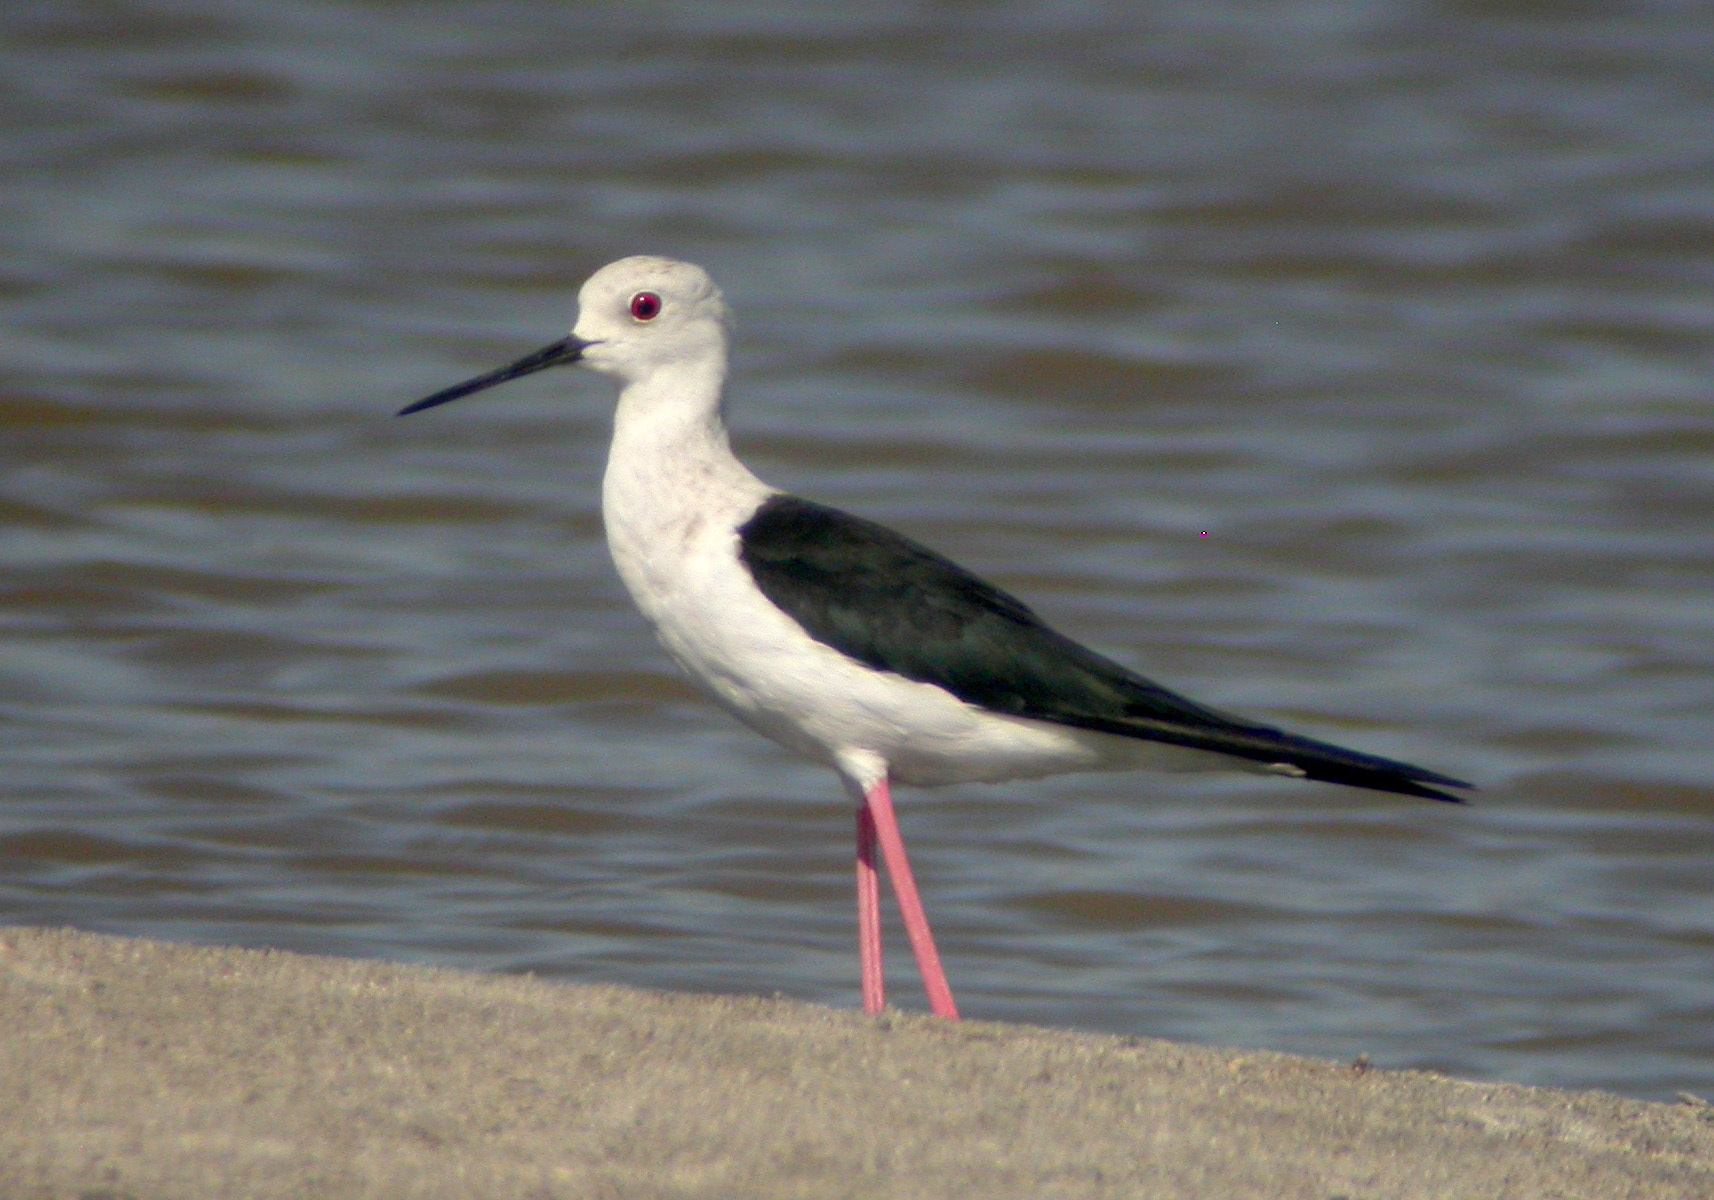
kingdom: Animalia
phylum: Chordata
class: Aves
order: Charadriiformes
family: Recurvirostridae
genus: Himantopus
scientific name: Himantopus himantopus
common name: Black-winged stilt
